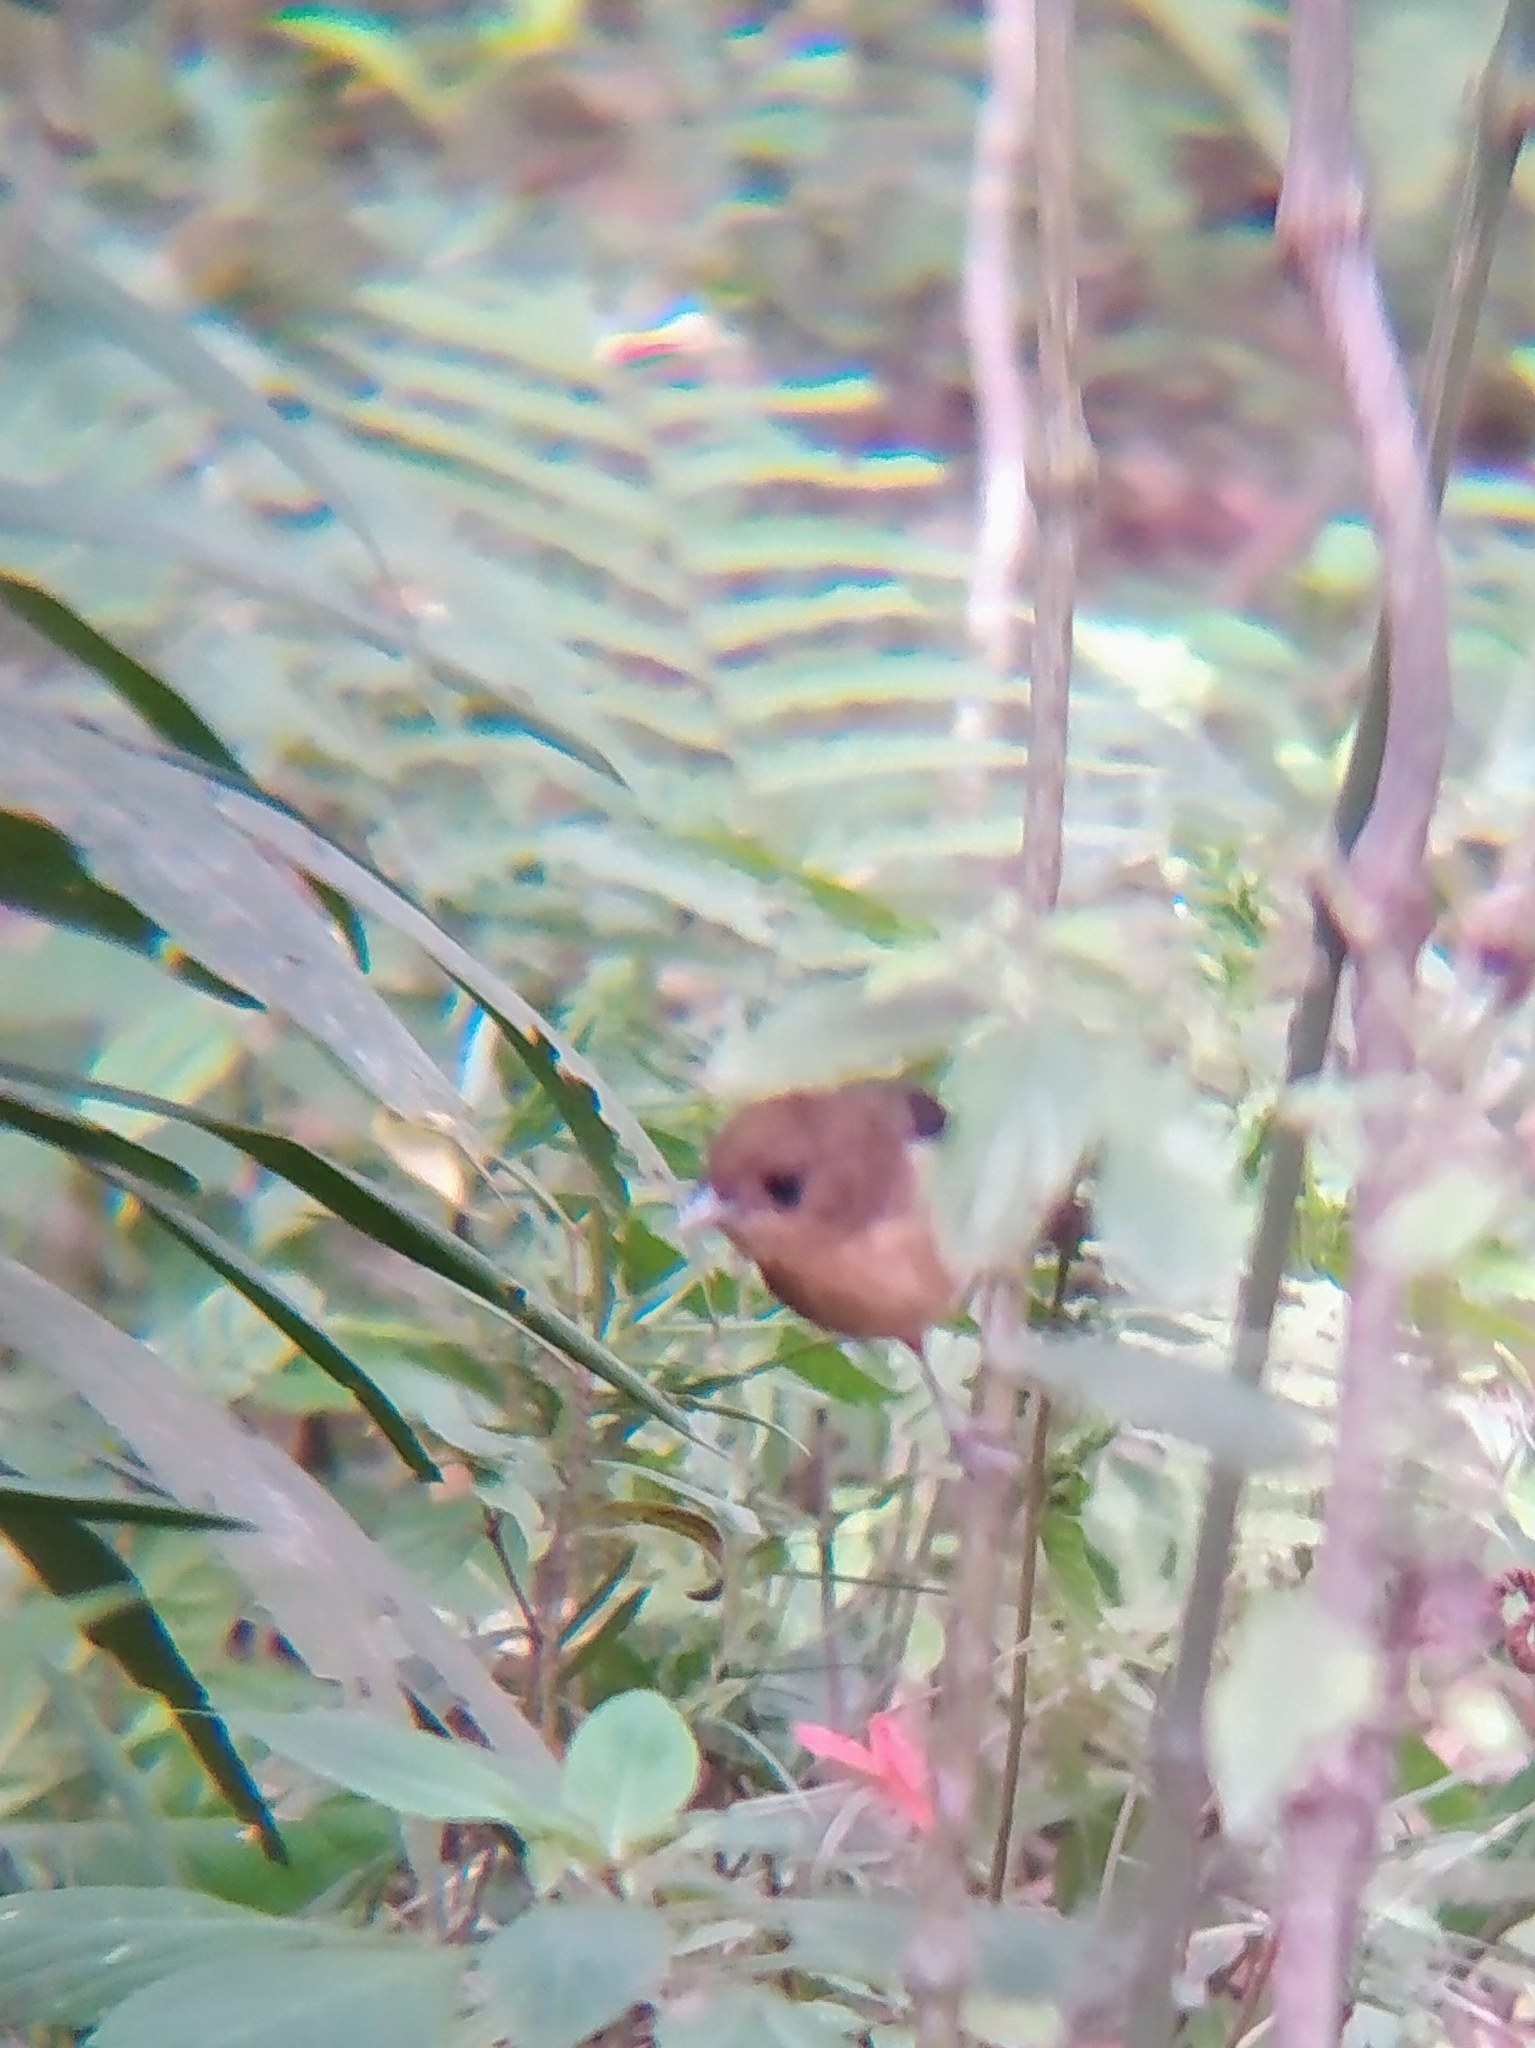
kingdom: Animalia
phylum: Chordata
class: Aves
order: Passeriformes
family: Thraupidae
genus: Trichothraupis
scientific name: Trichothraupis melanops
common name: Black-goggled tanager
